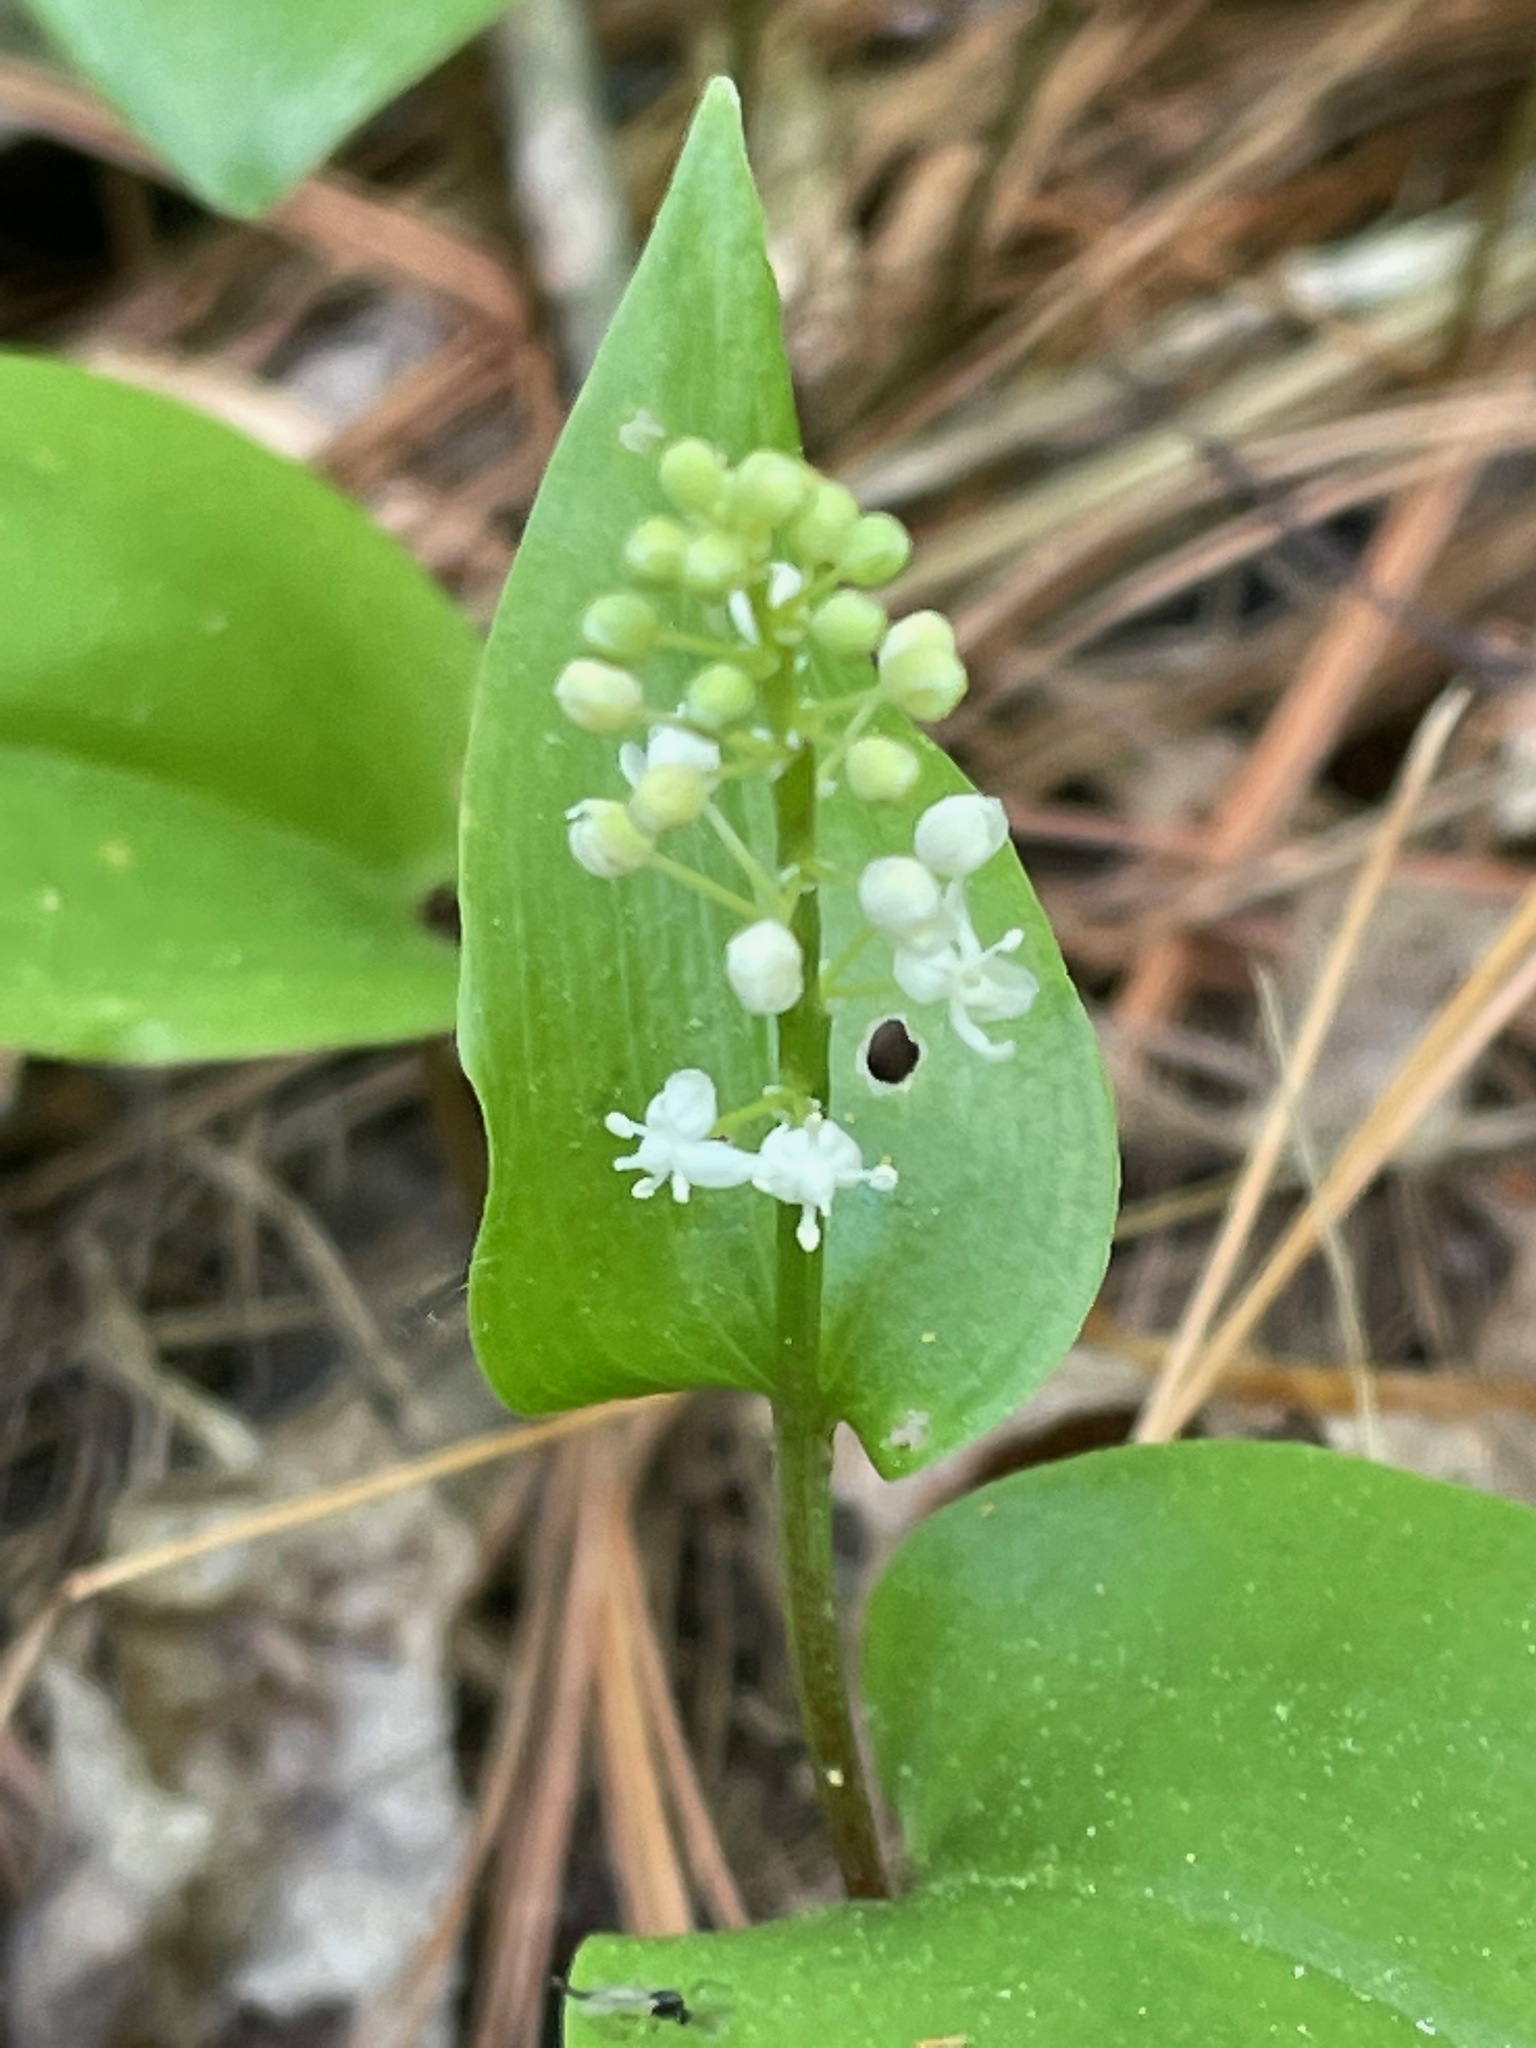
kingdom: Plantae
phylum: Tracheophyta
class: Liliopsida
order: Asparagales
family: Asparagaceae
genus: Maianthemum
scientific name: Maianthemum canadense
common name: False lily-of-the-valley
